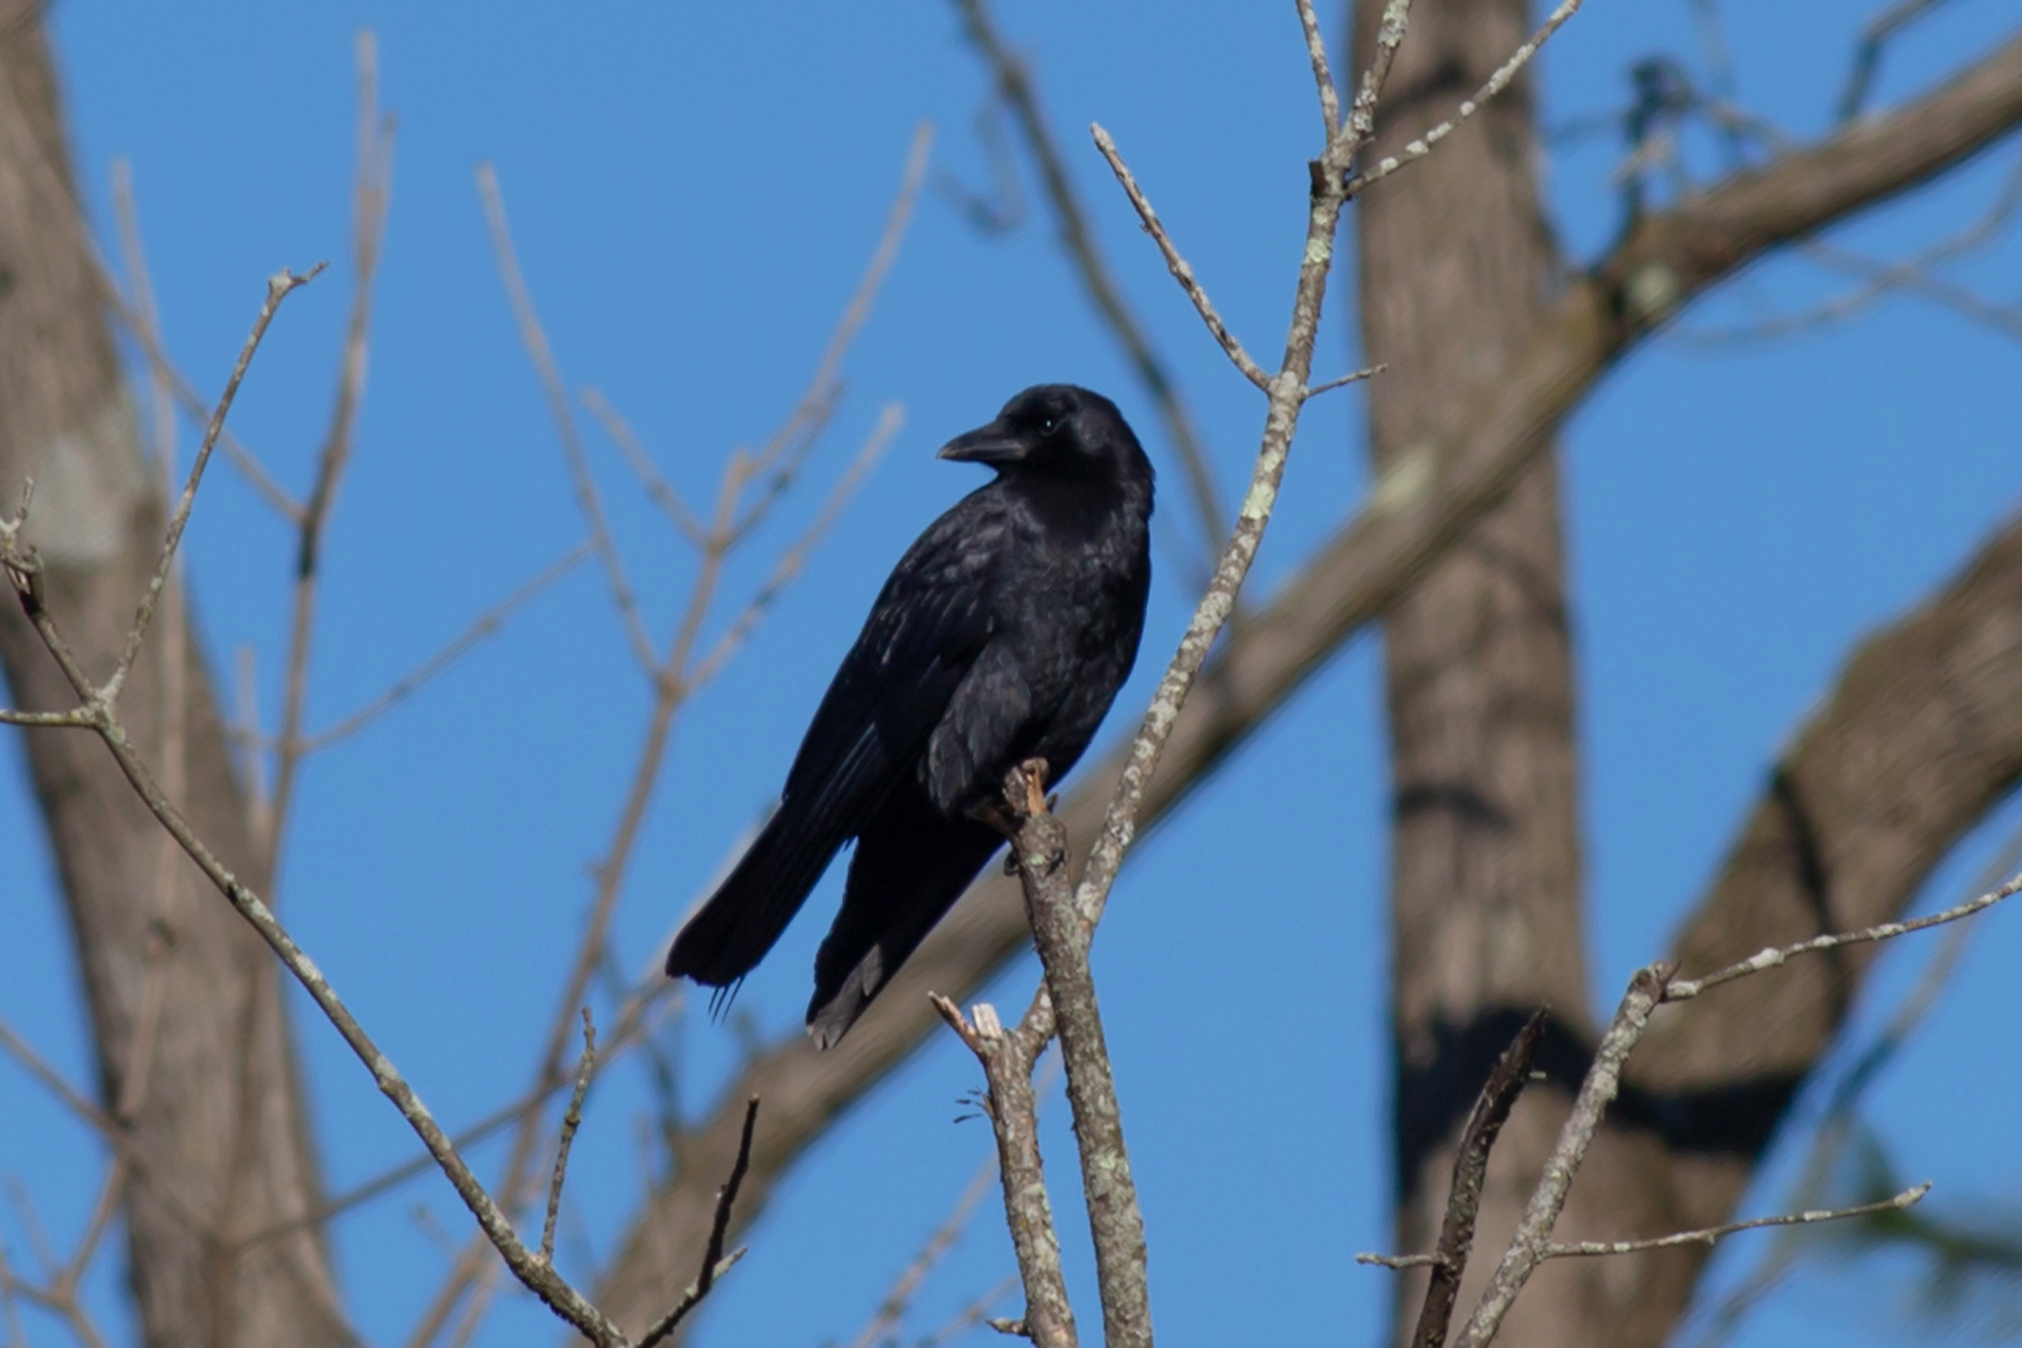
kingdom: Animalia
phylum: Chordata
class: Aves
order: Passeriformes
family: Corvidae
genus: Corvus
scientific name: Corvus brachyrhynchos
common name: American crow
